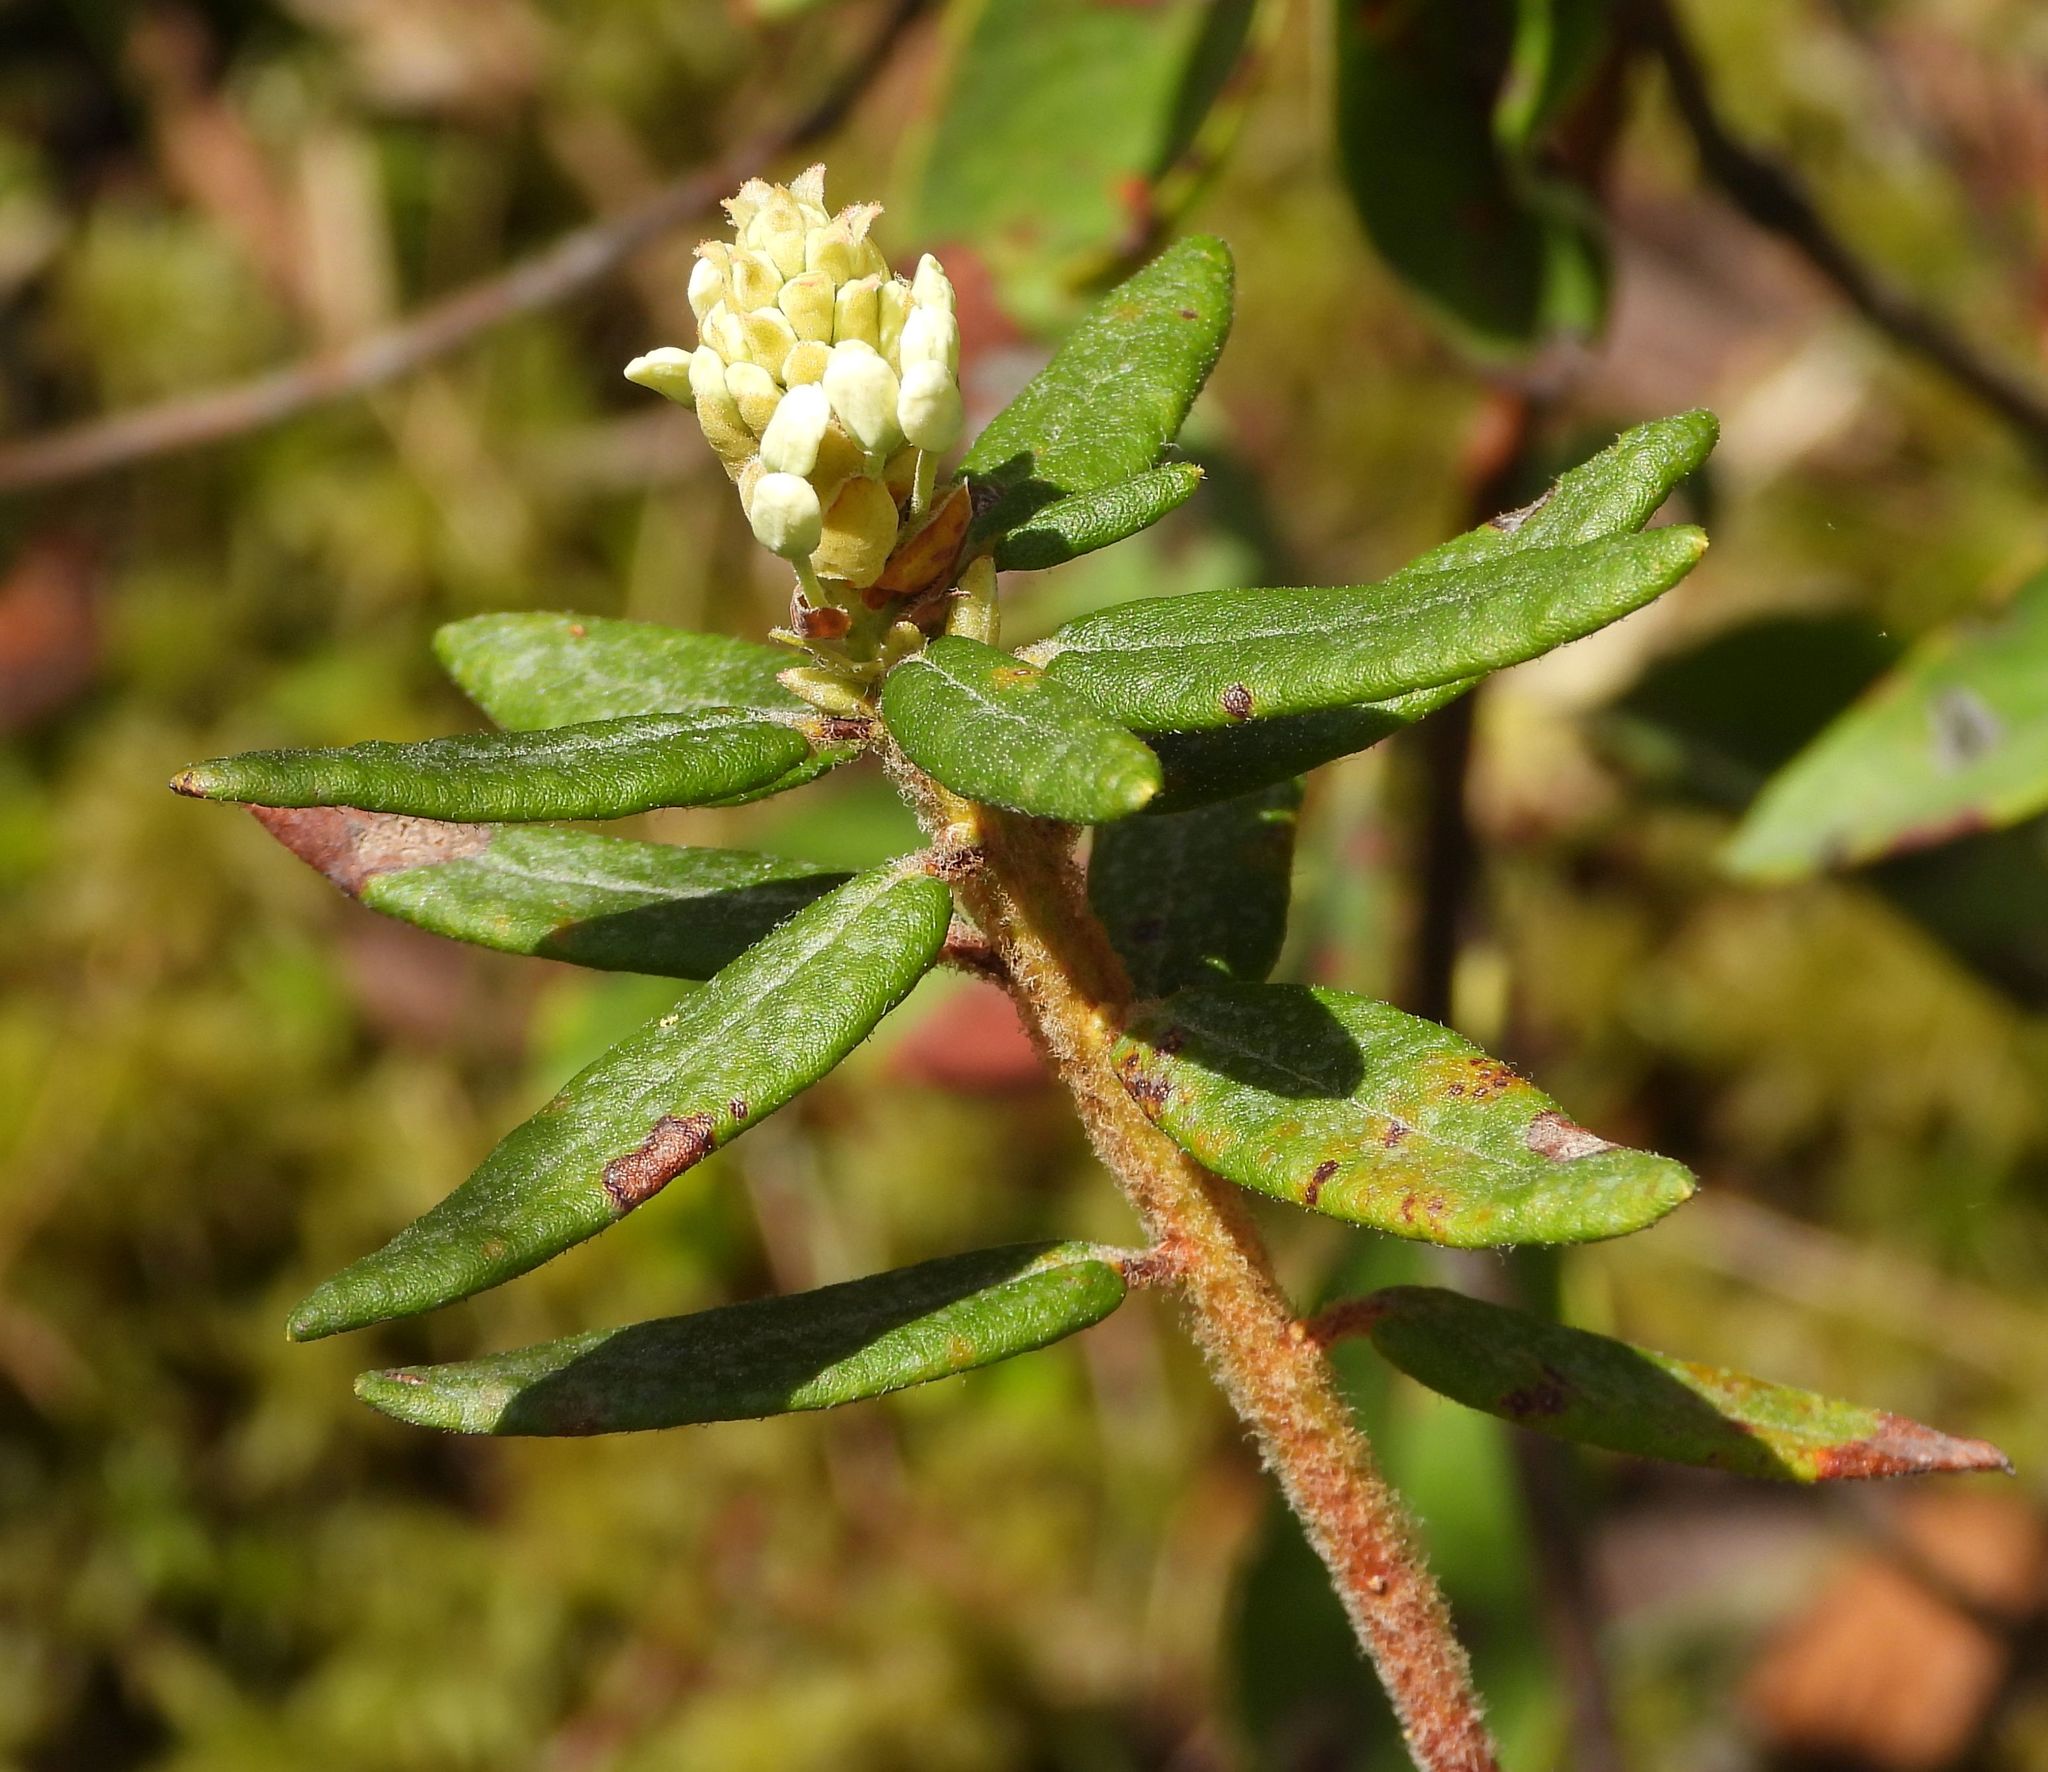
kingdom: Plantae
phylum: Tracheophyta
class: Magnoliopsida
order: Ericales
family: Ericaceae
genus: Rhododendron
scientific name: Rhododendron groenlandicum
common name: Bog labrador tea
